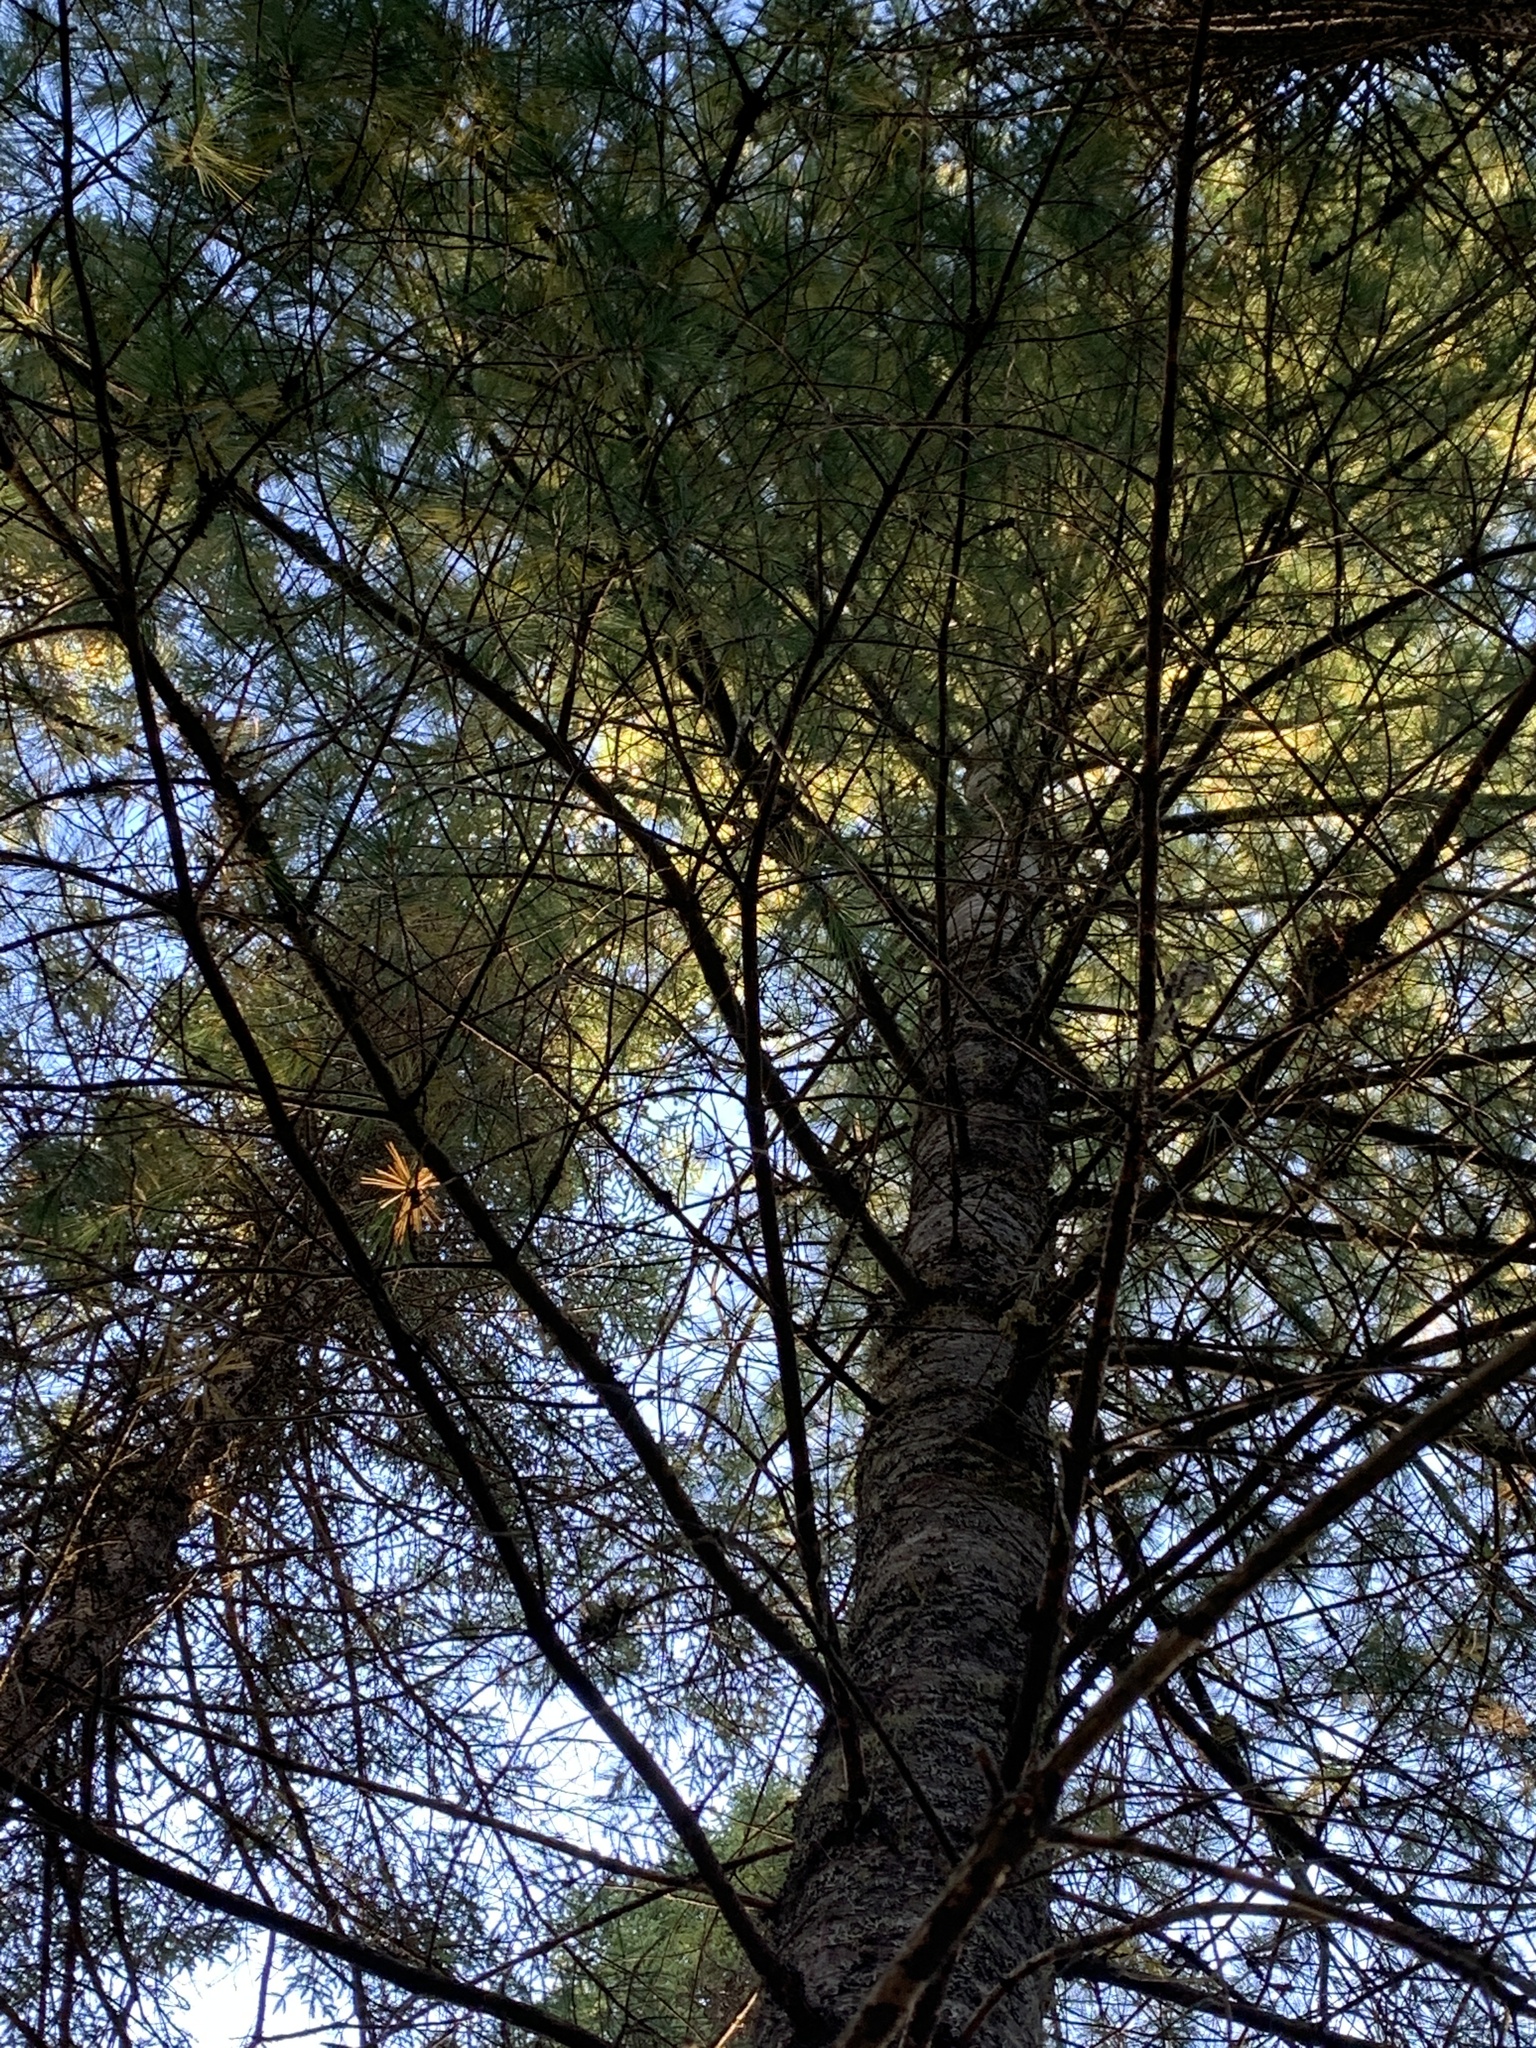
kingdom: Plantae
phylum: Tracheophyta
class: Pinopsida
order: Pinales
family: Pinaceae
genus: Pinus
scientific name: Pinus strobus
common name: Weymouth pine
